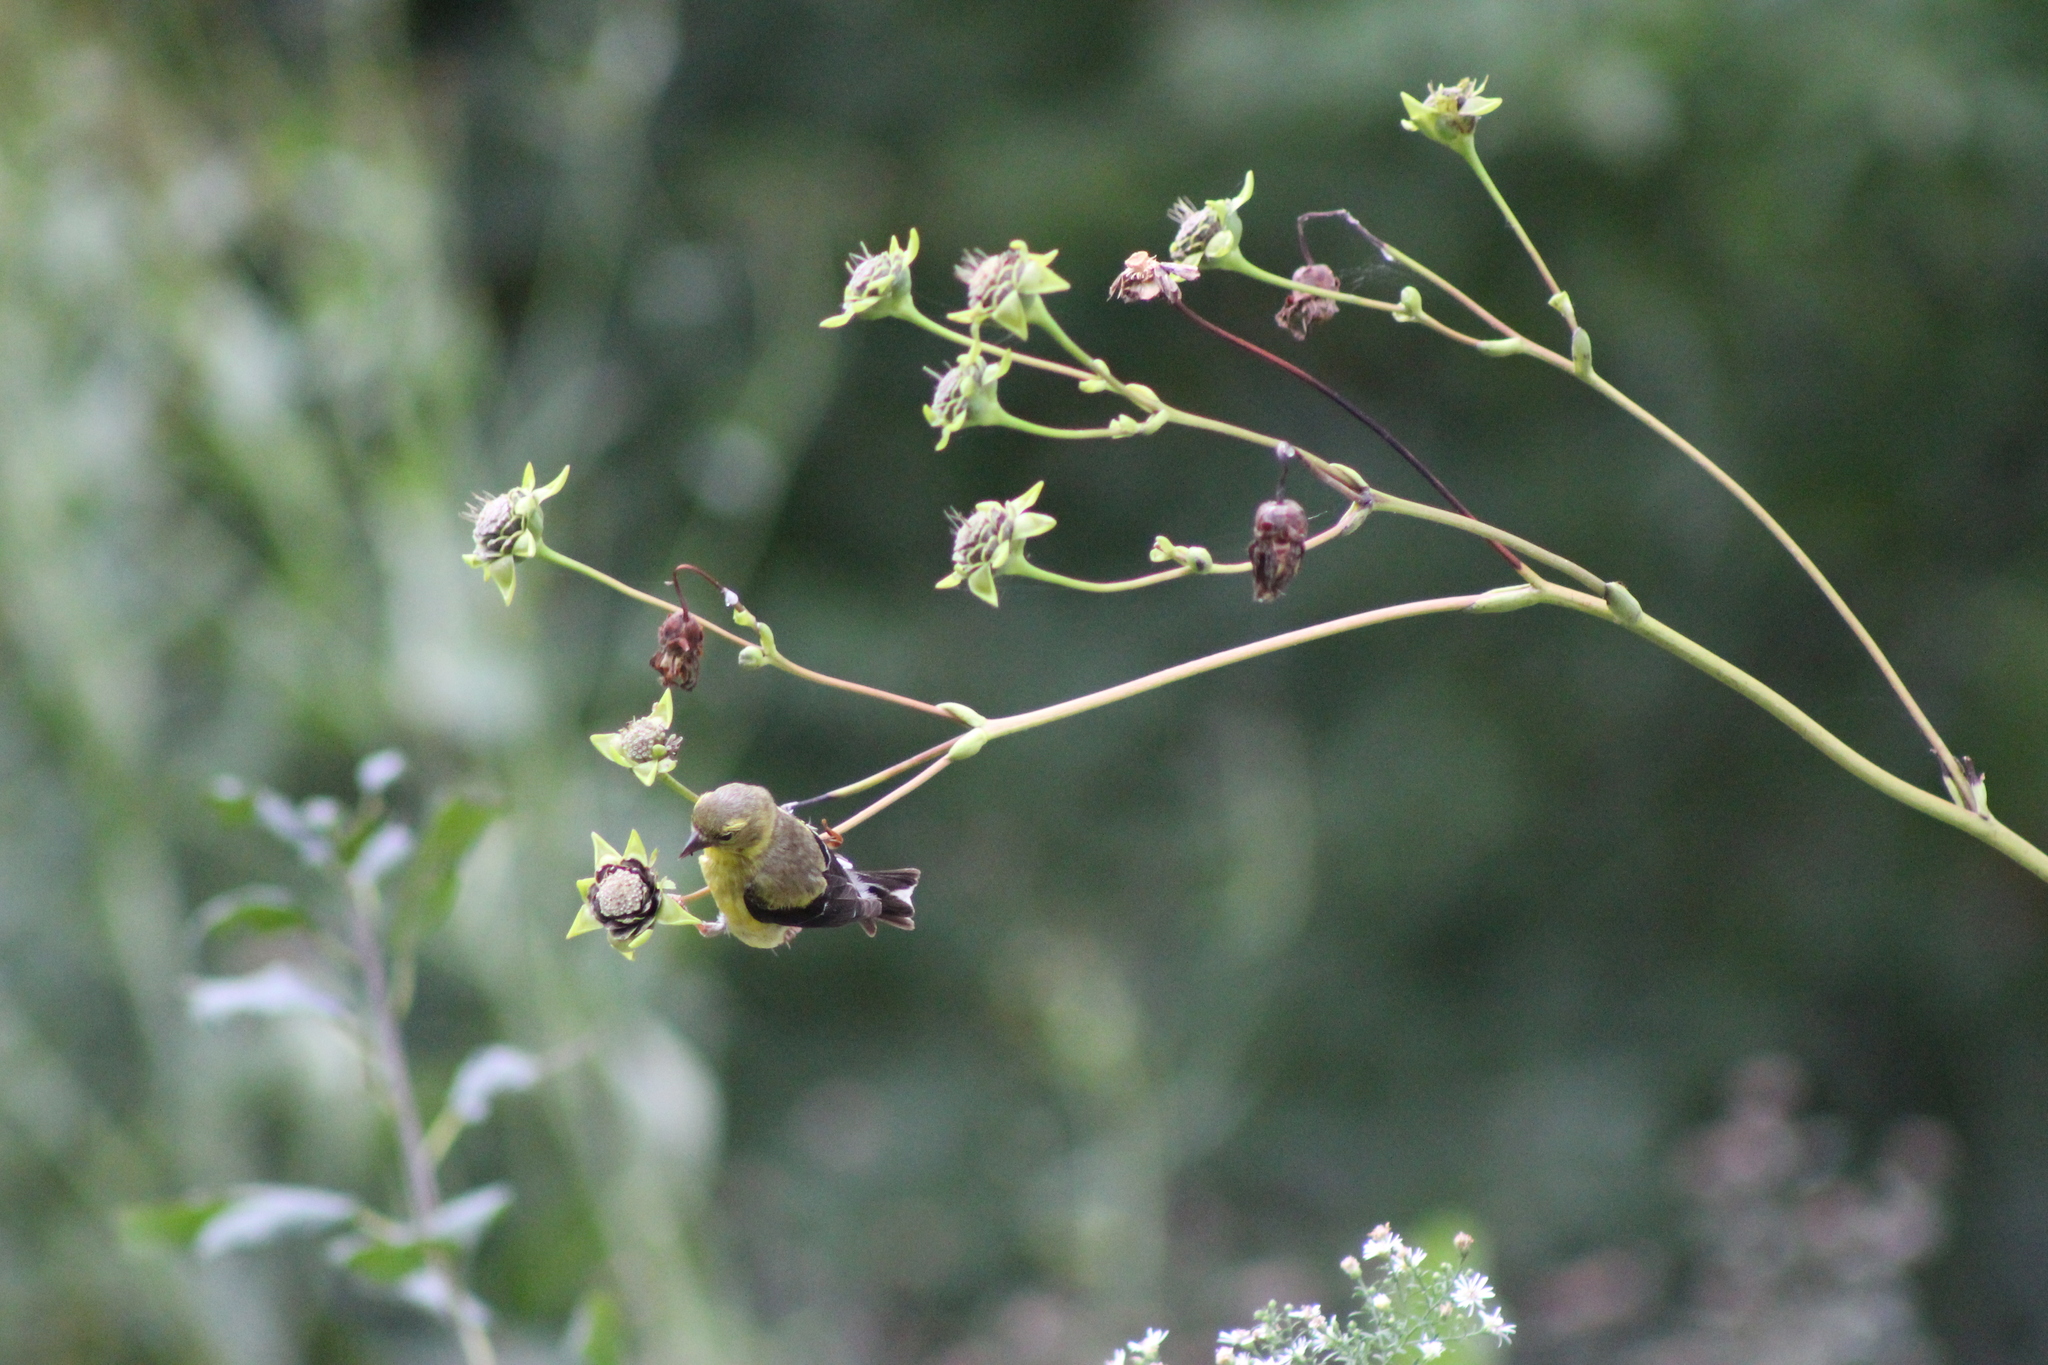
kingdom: Plantae
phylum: Tracheophyta
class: Magnoliopsida
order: Asterales
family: Asteraceae
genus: Silphium
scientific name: Silphium perfoliatum
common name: Cup-plant
